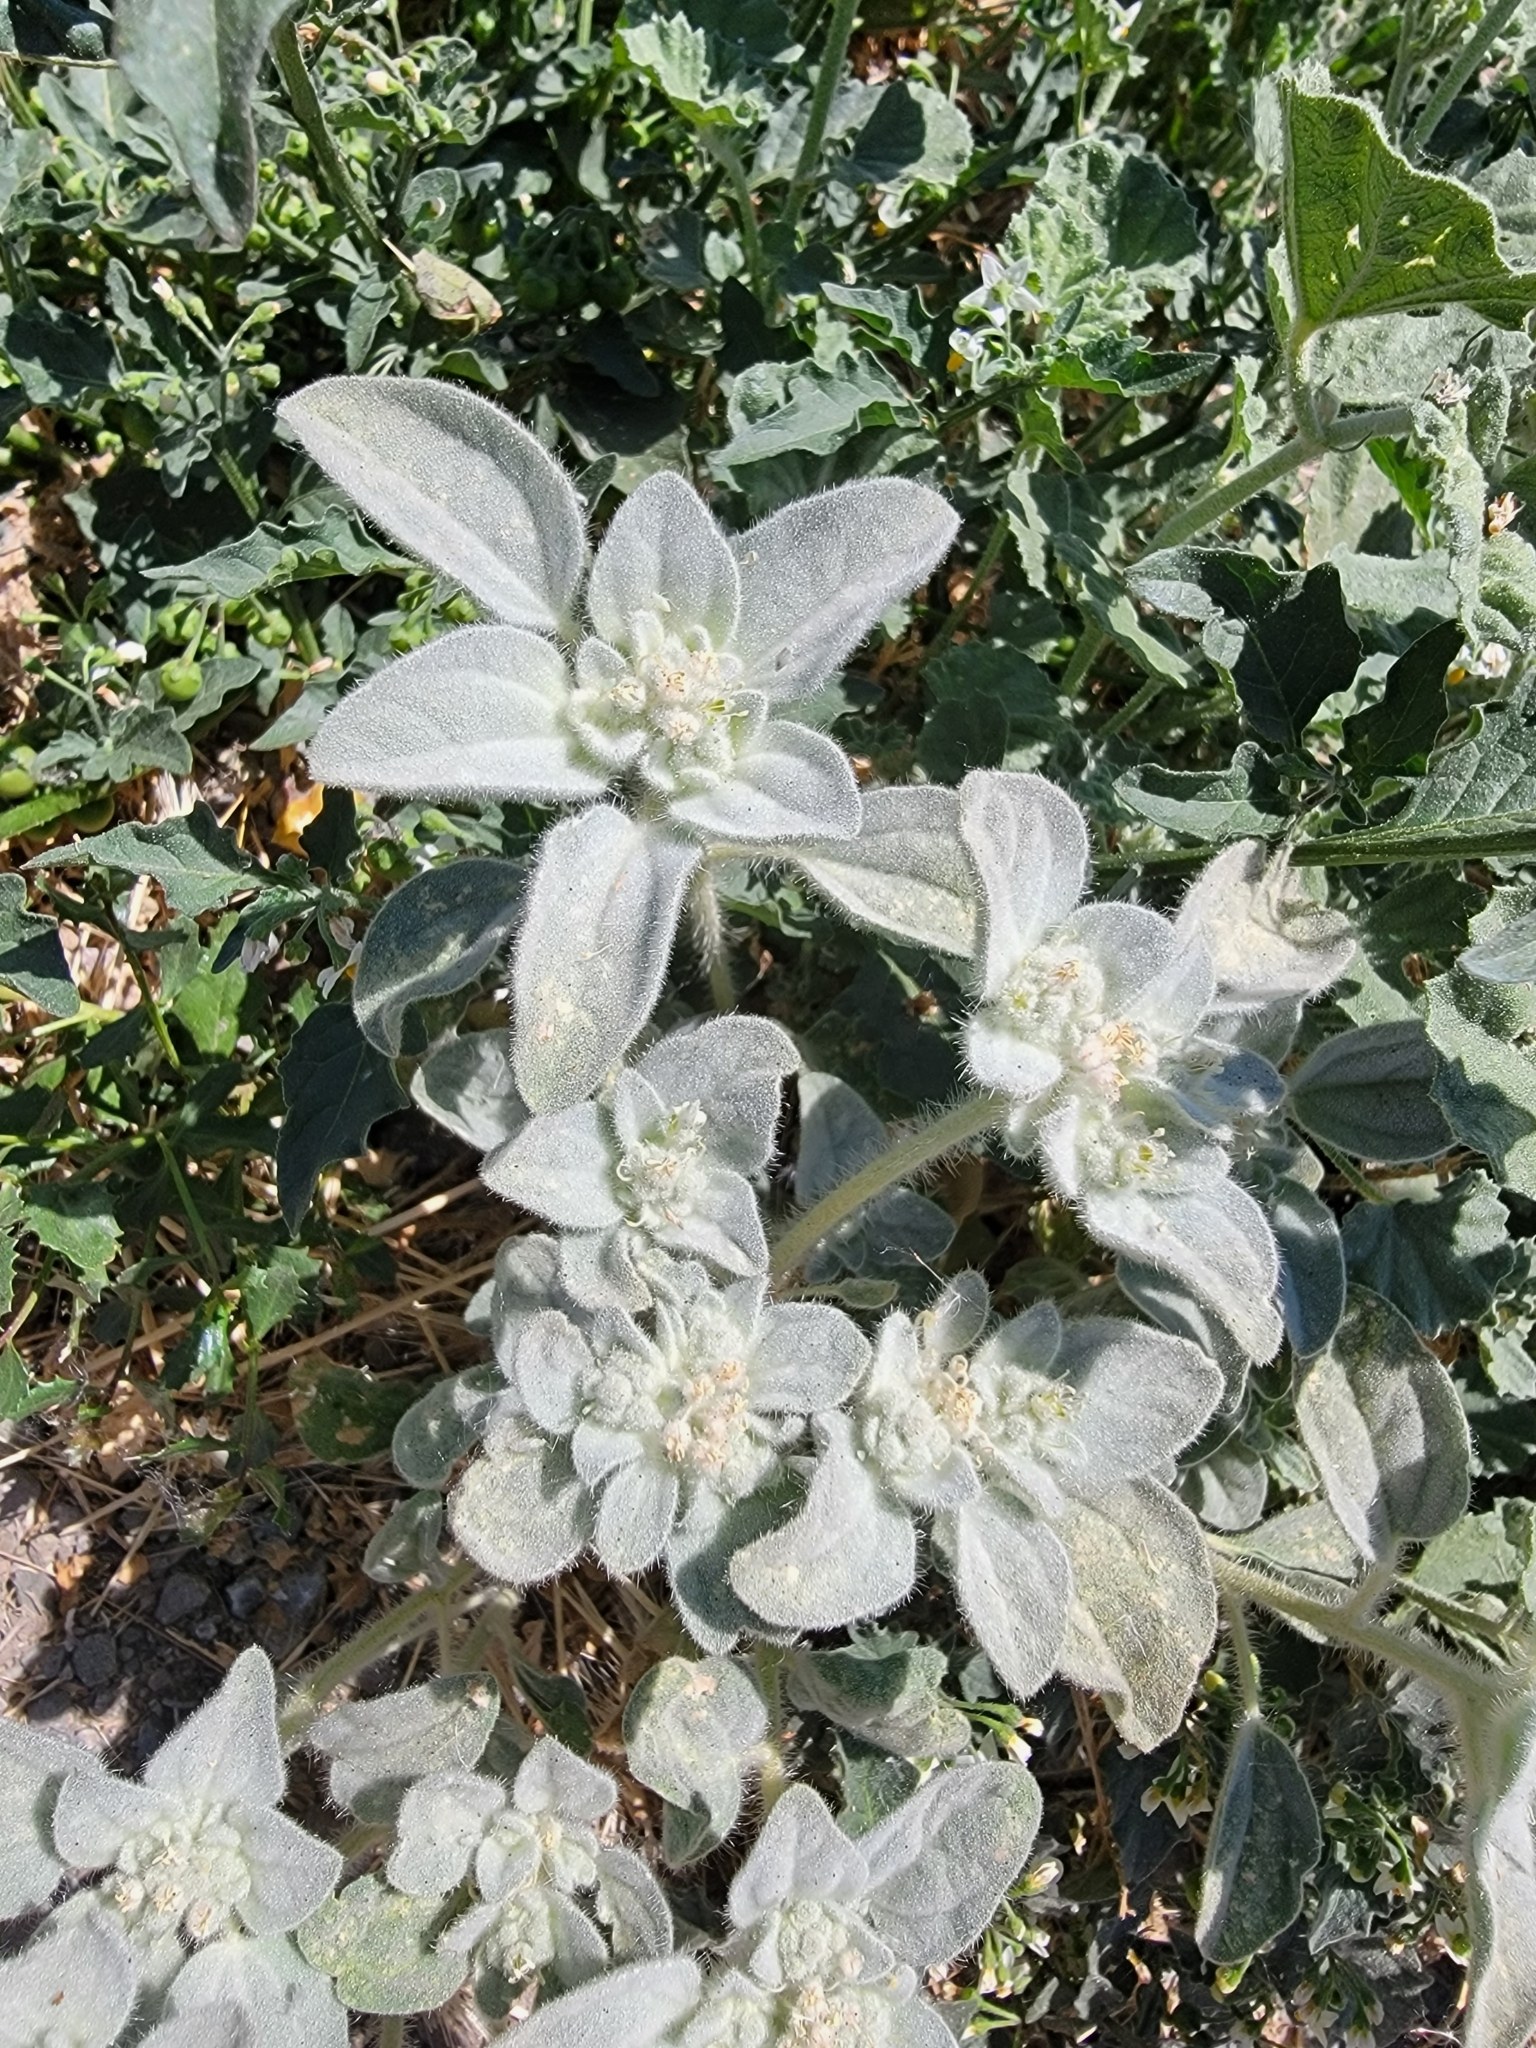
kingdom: Plantae
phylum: Tracheophyta
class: Magnoliopsida
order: Malpighiales
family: Euphorbiaceae
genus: Croton
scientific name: Croton setiger
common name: Dove weed
